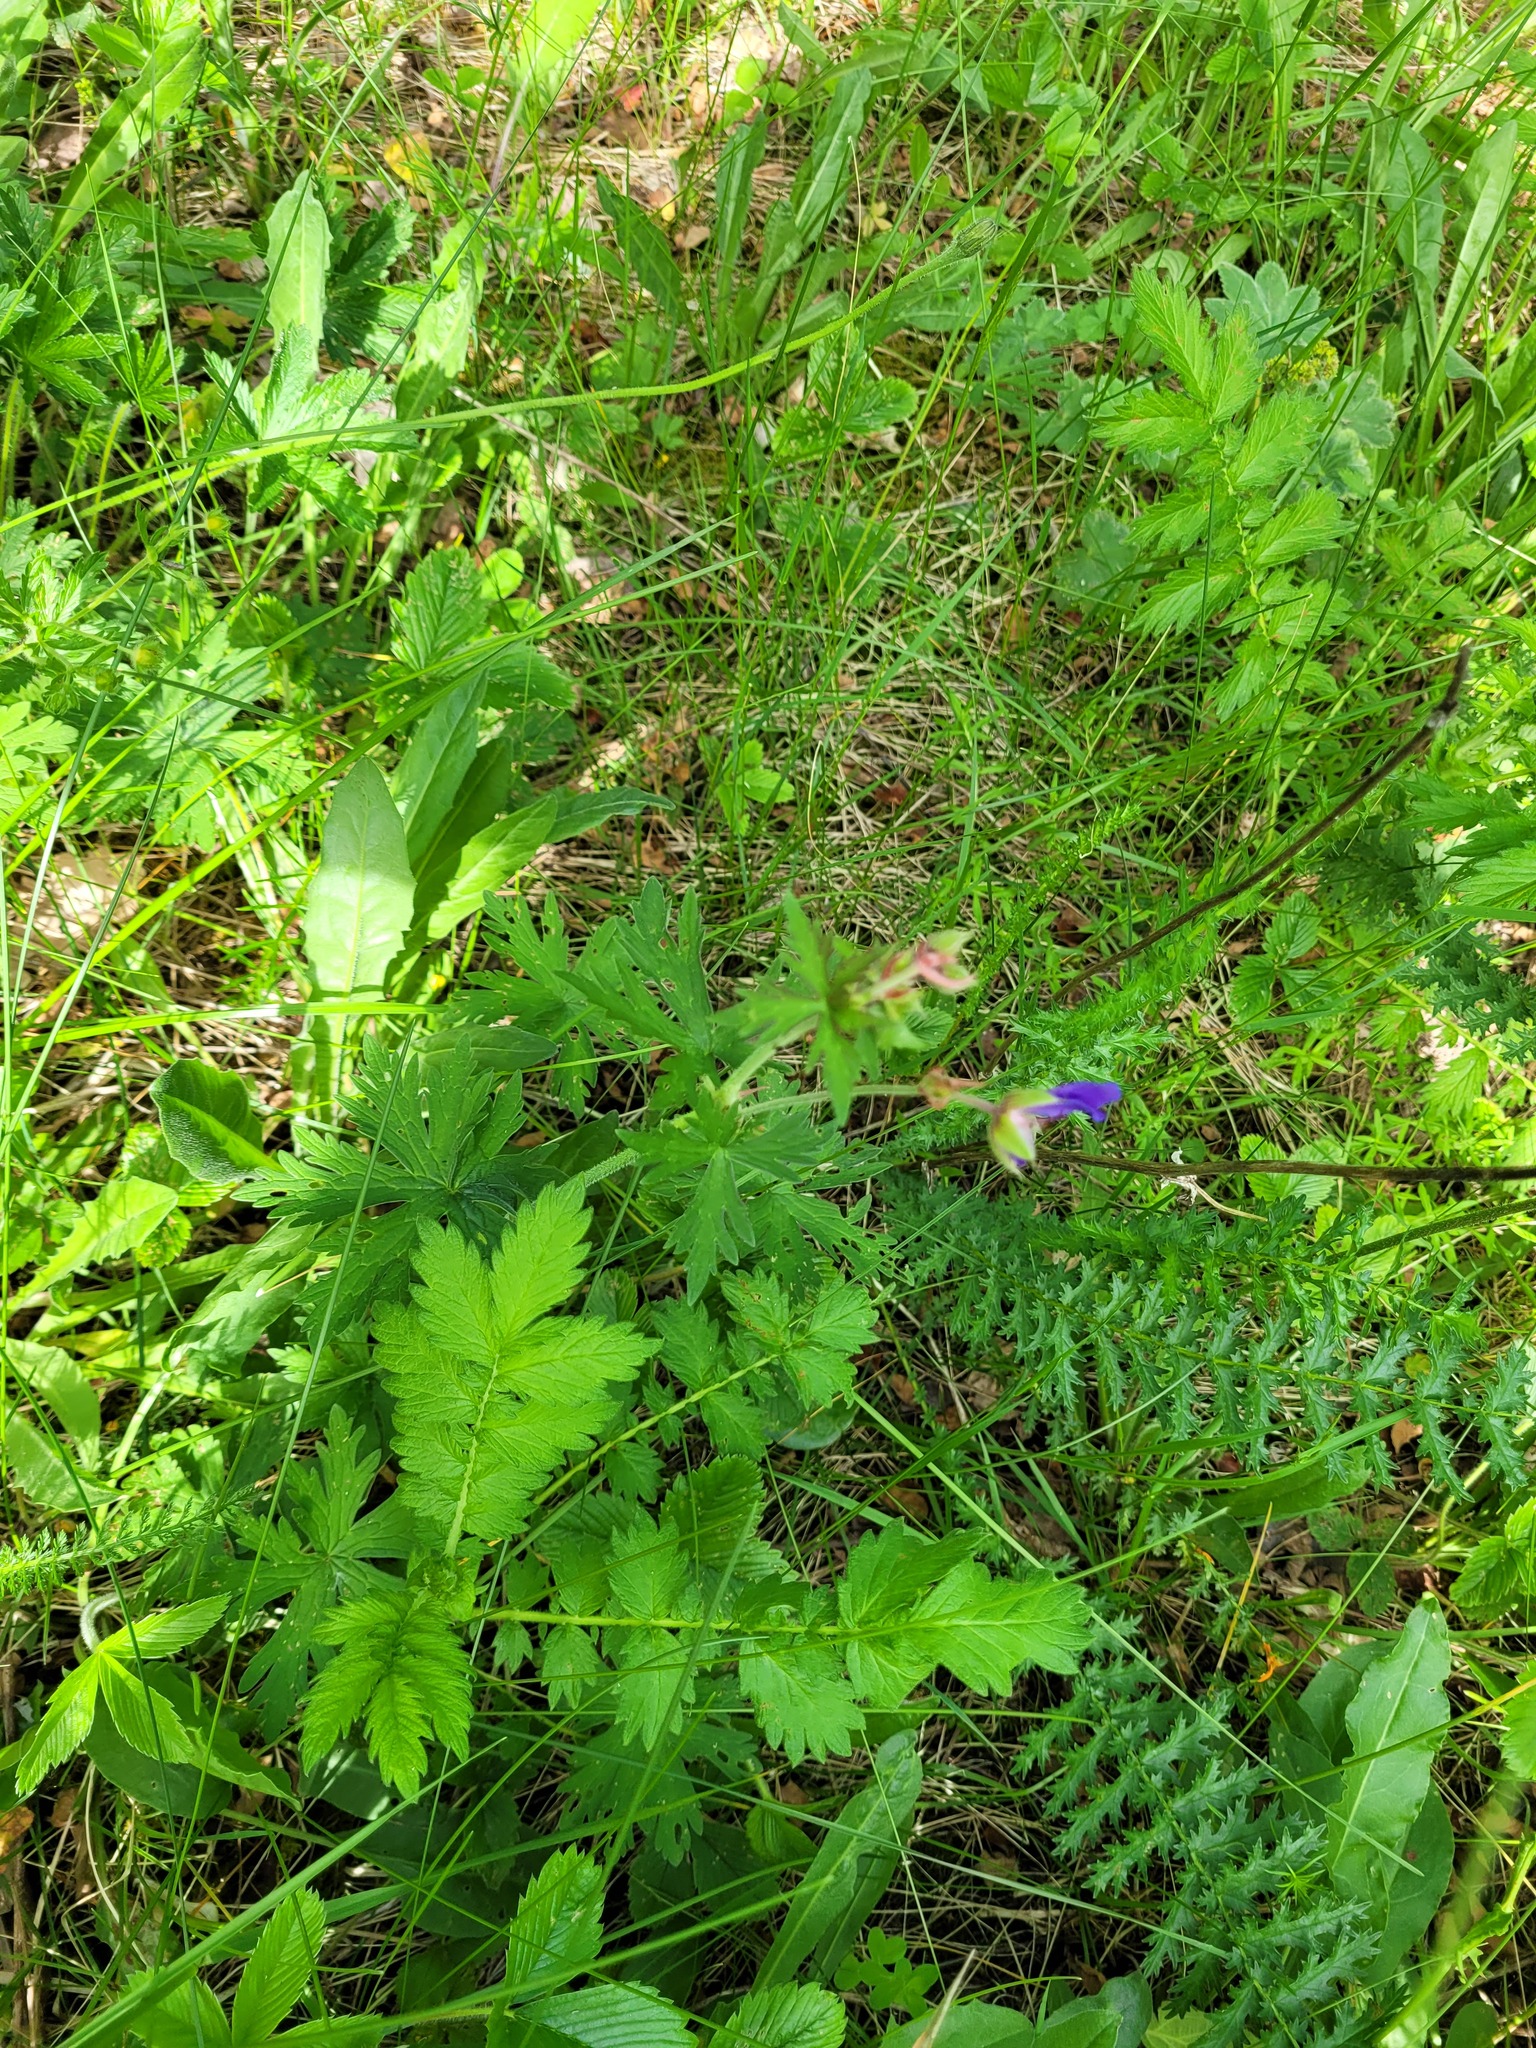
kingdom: Plantae
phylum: Tracheophyta
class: Magnoliopsida
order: Geraniales
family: Geraniaceae
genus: Geranium
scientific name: Geranium pratense
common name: Meadow crane's-bill
